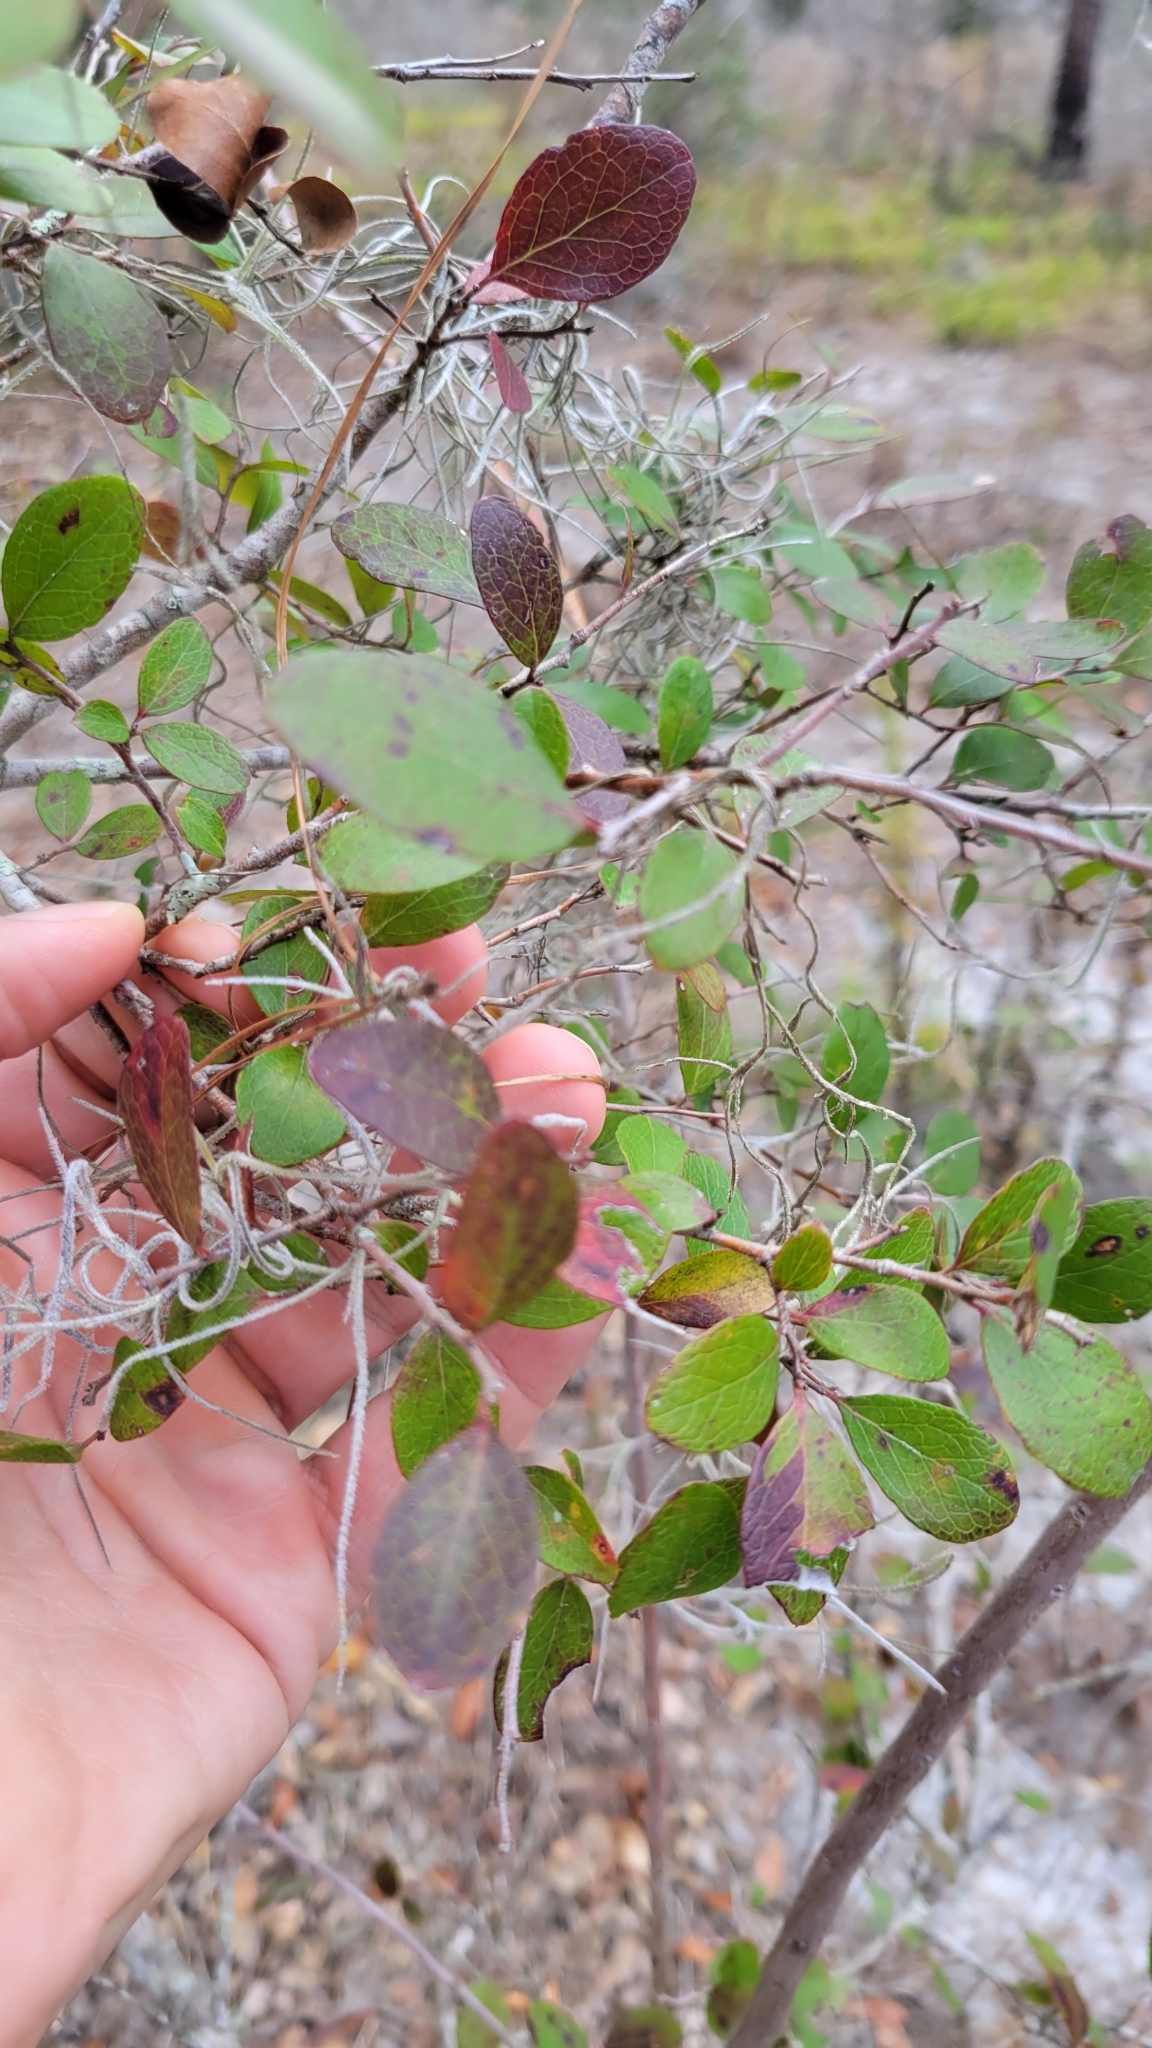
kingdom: Plantae
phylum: Tracheophyta
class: Magnoliopsida
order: Ericales
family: Ericaceae
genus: Vaccinium
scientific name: Vaccinium arboreum
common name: Farkleberry
